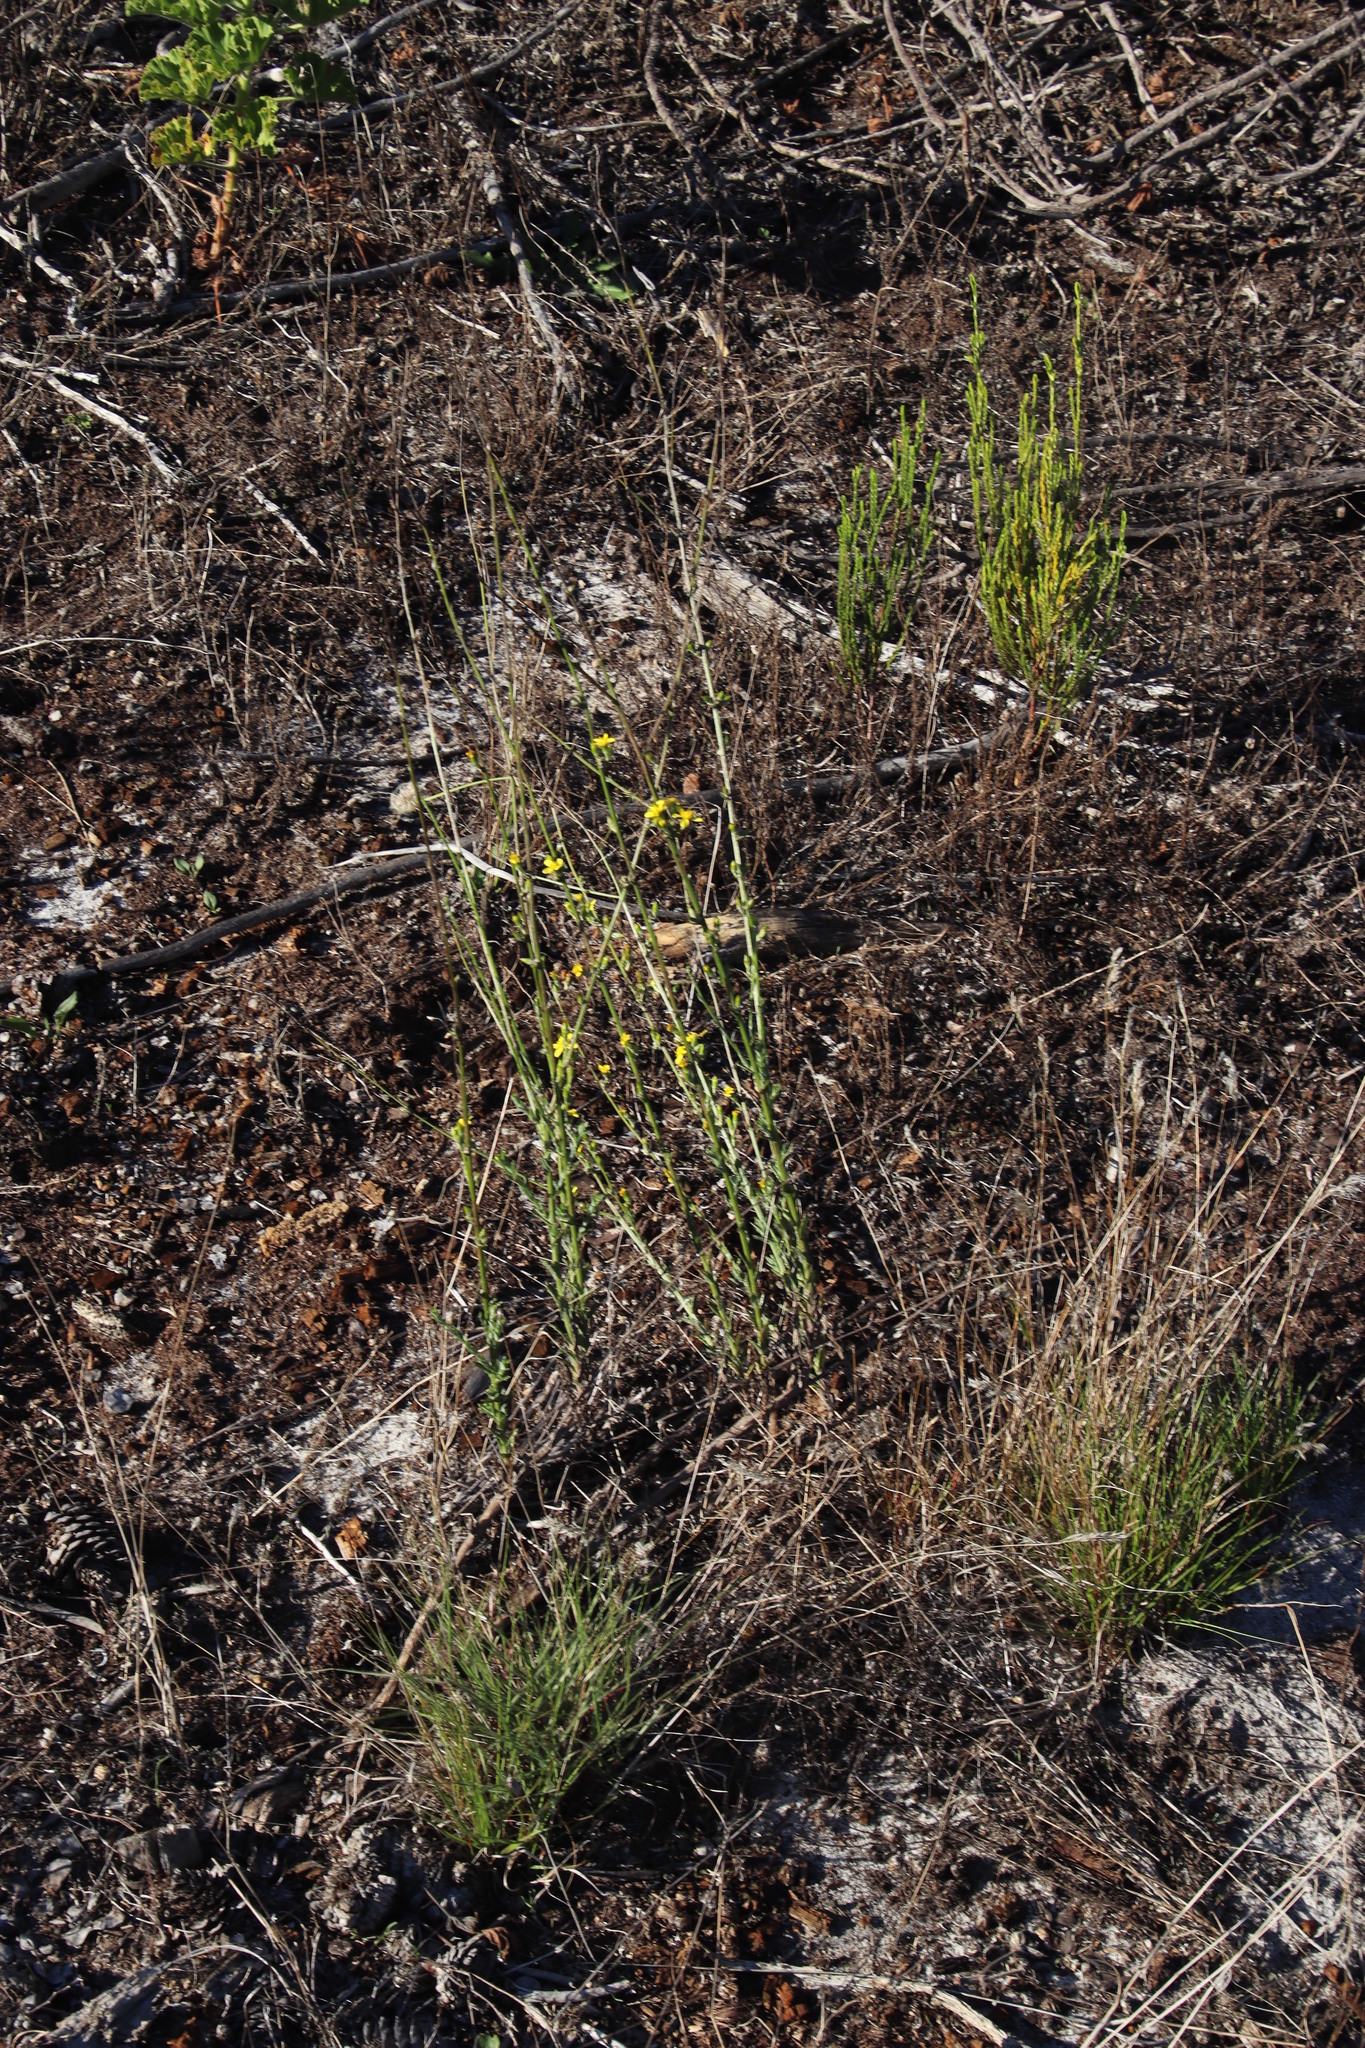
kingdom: Plantae
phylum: Tracheophyta
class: Magnoliopsida
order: Asterales
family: Asteraceae
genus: Senecio
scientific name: Senecio pubigerus
